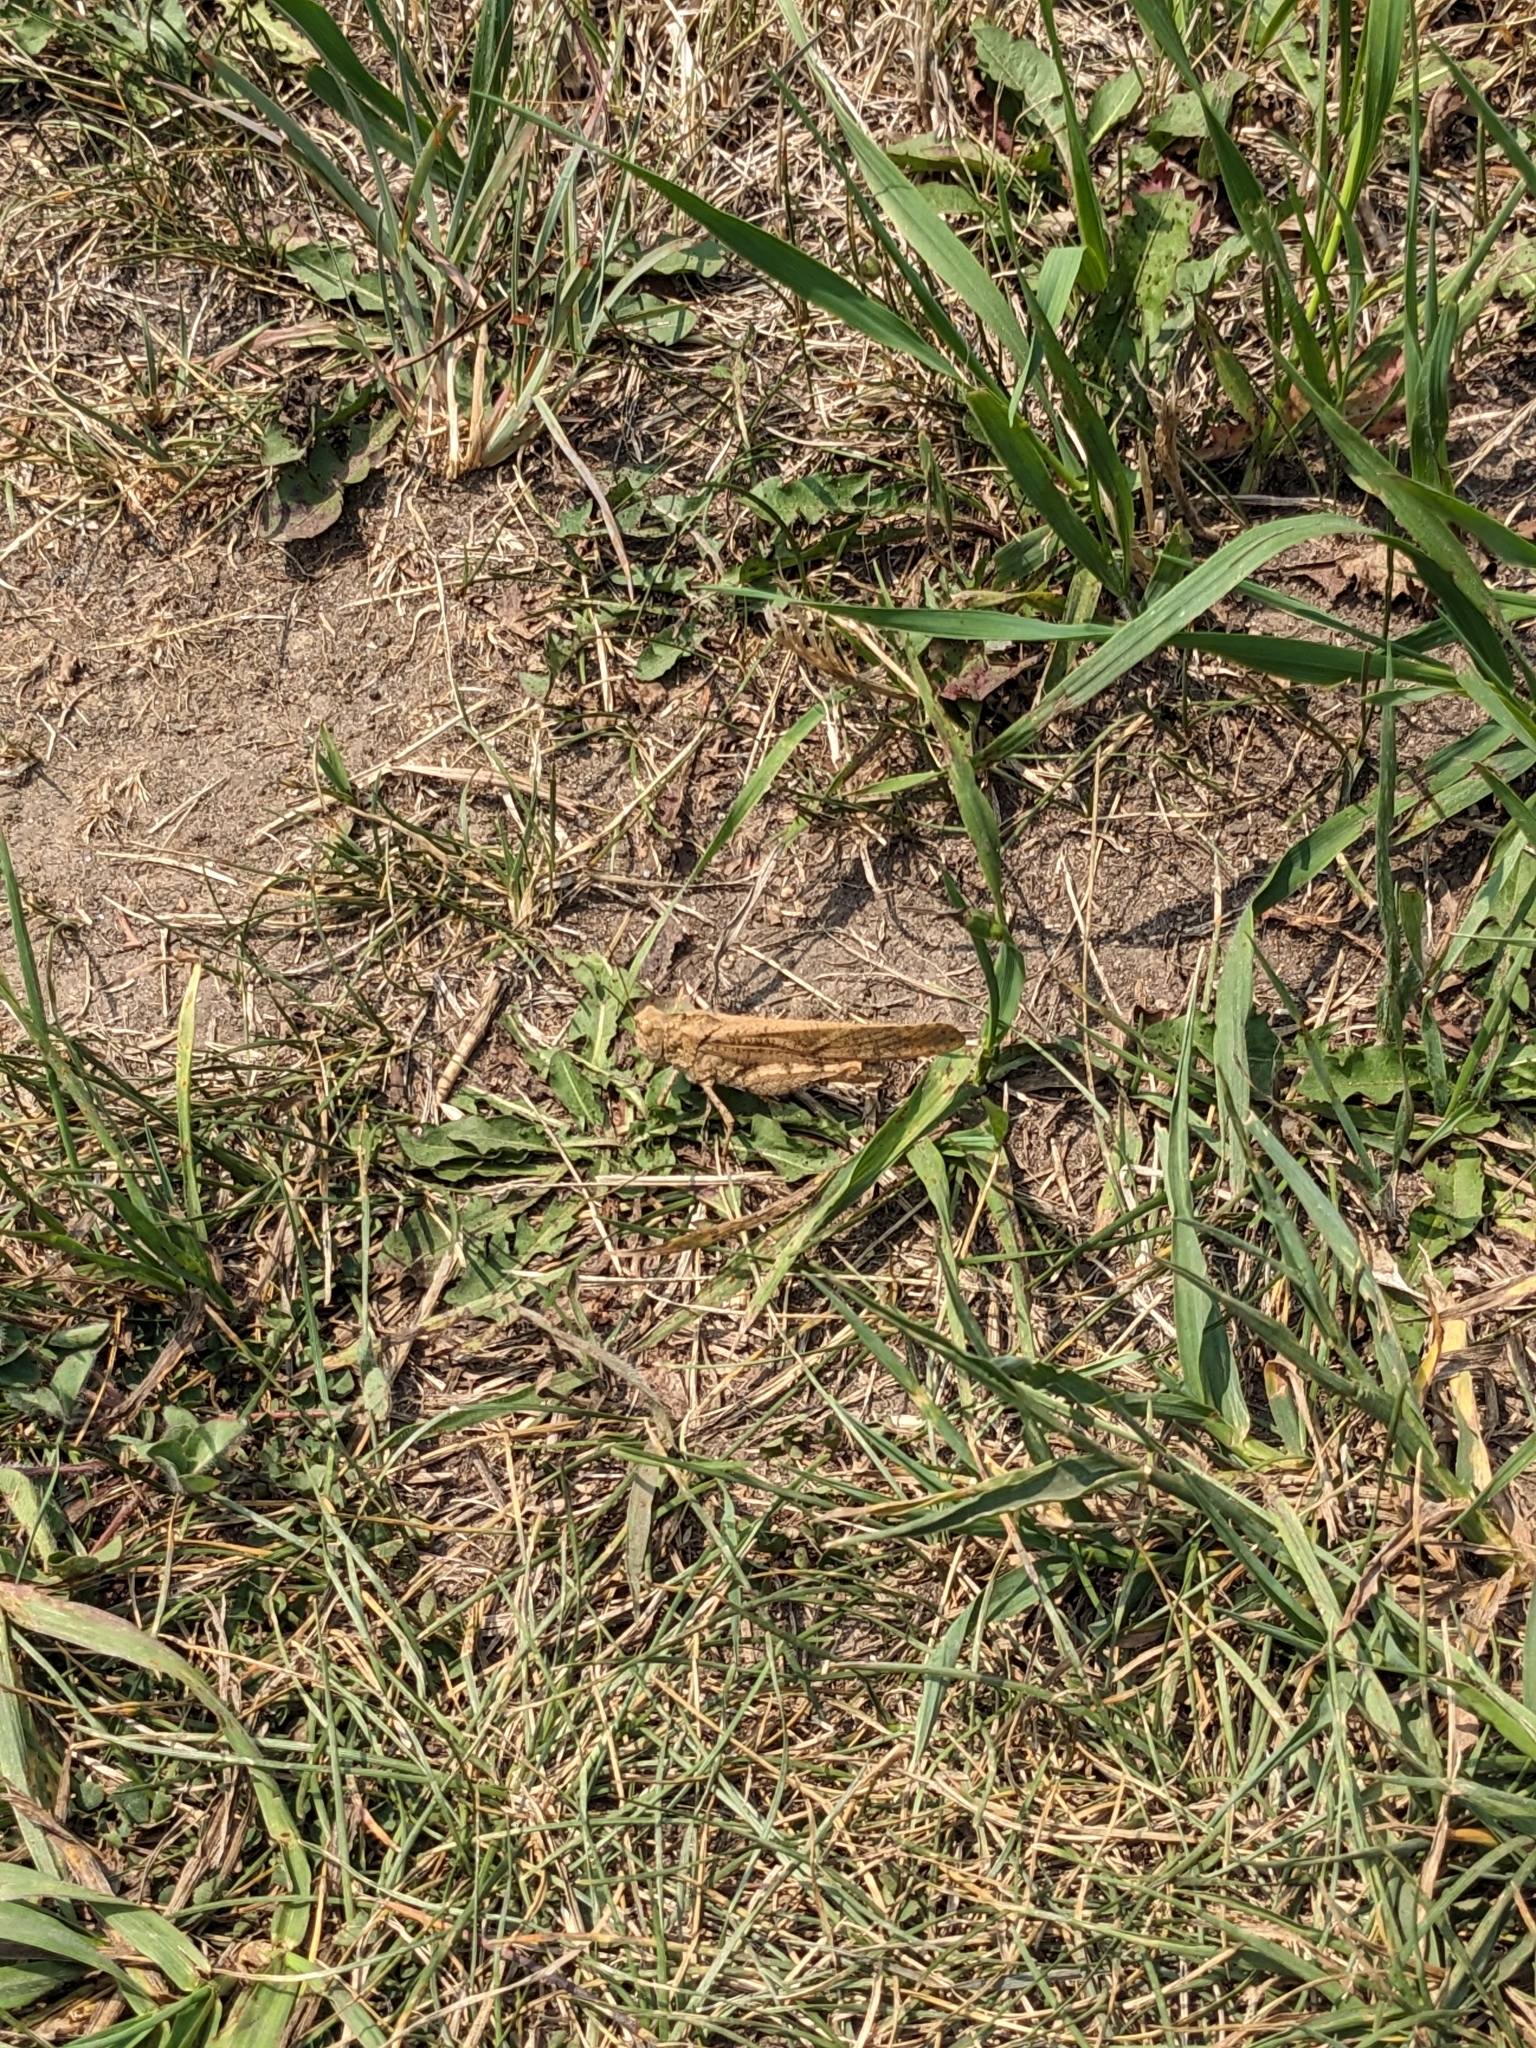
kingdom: Animalia
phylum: Arthropoda
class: Insecta
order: Orthoptera
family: Acrididae
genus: Dissosteira
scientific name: Dissosteira carolina
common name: Carolina grasshopper
